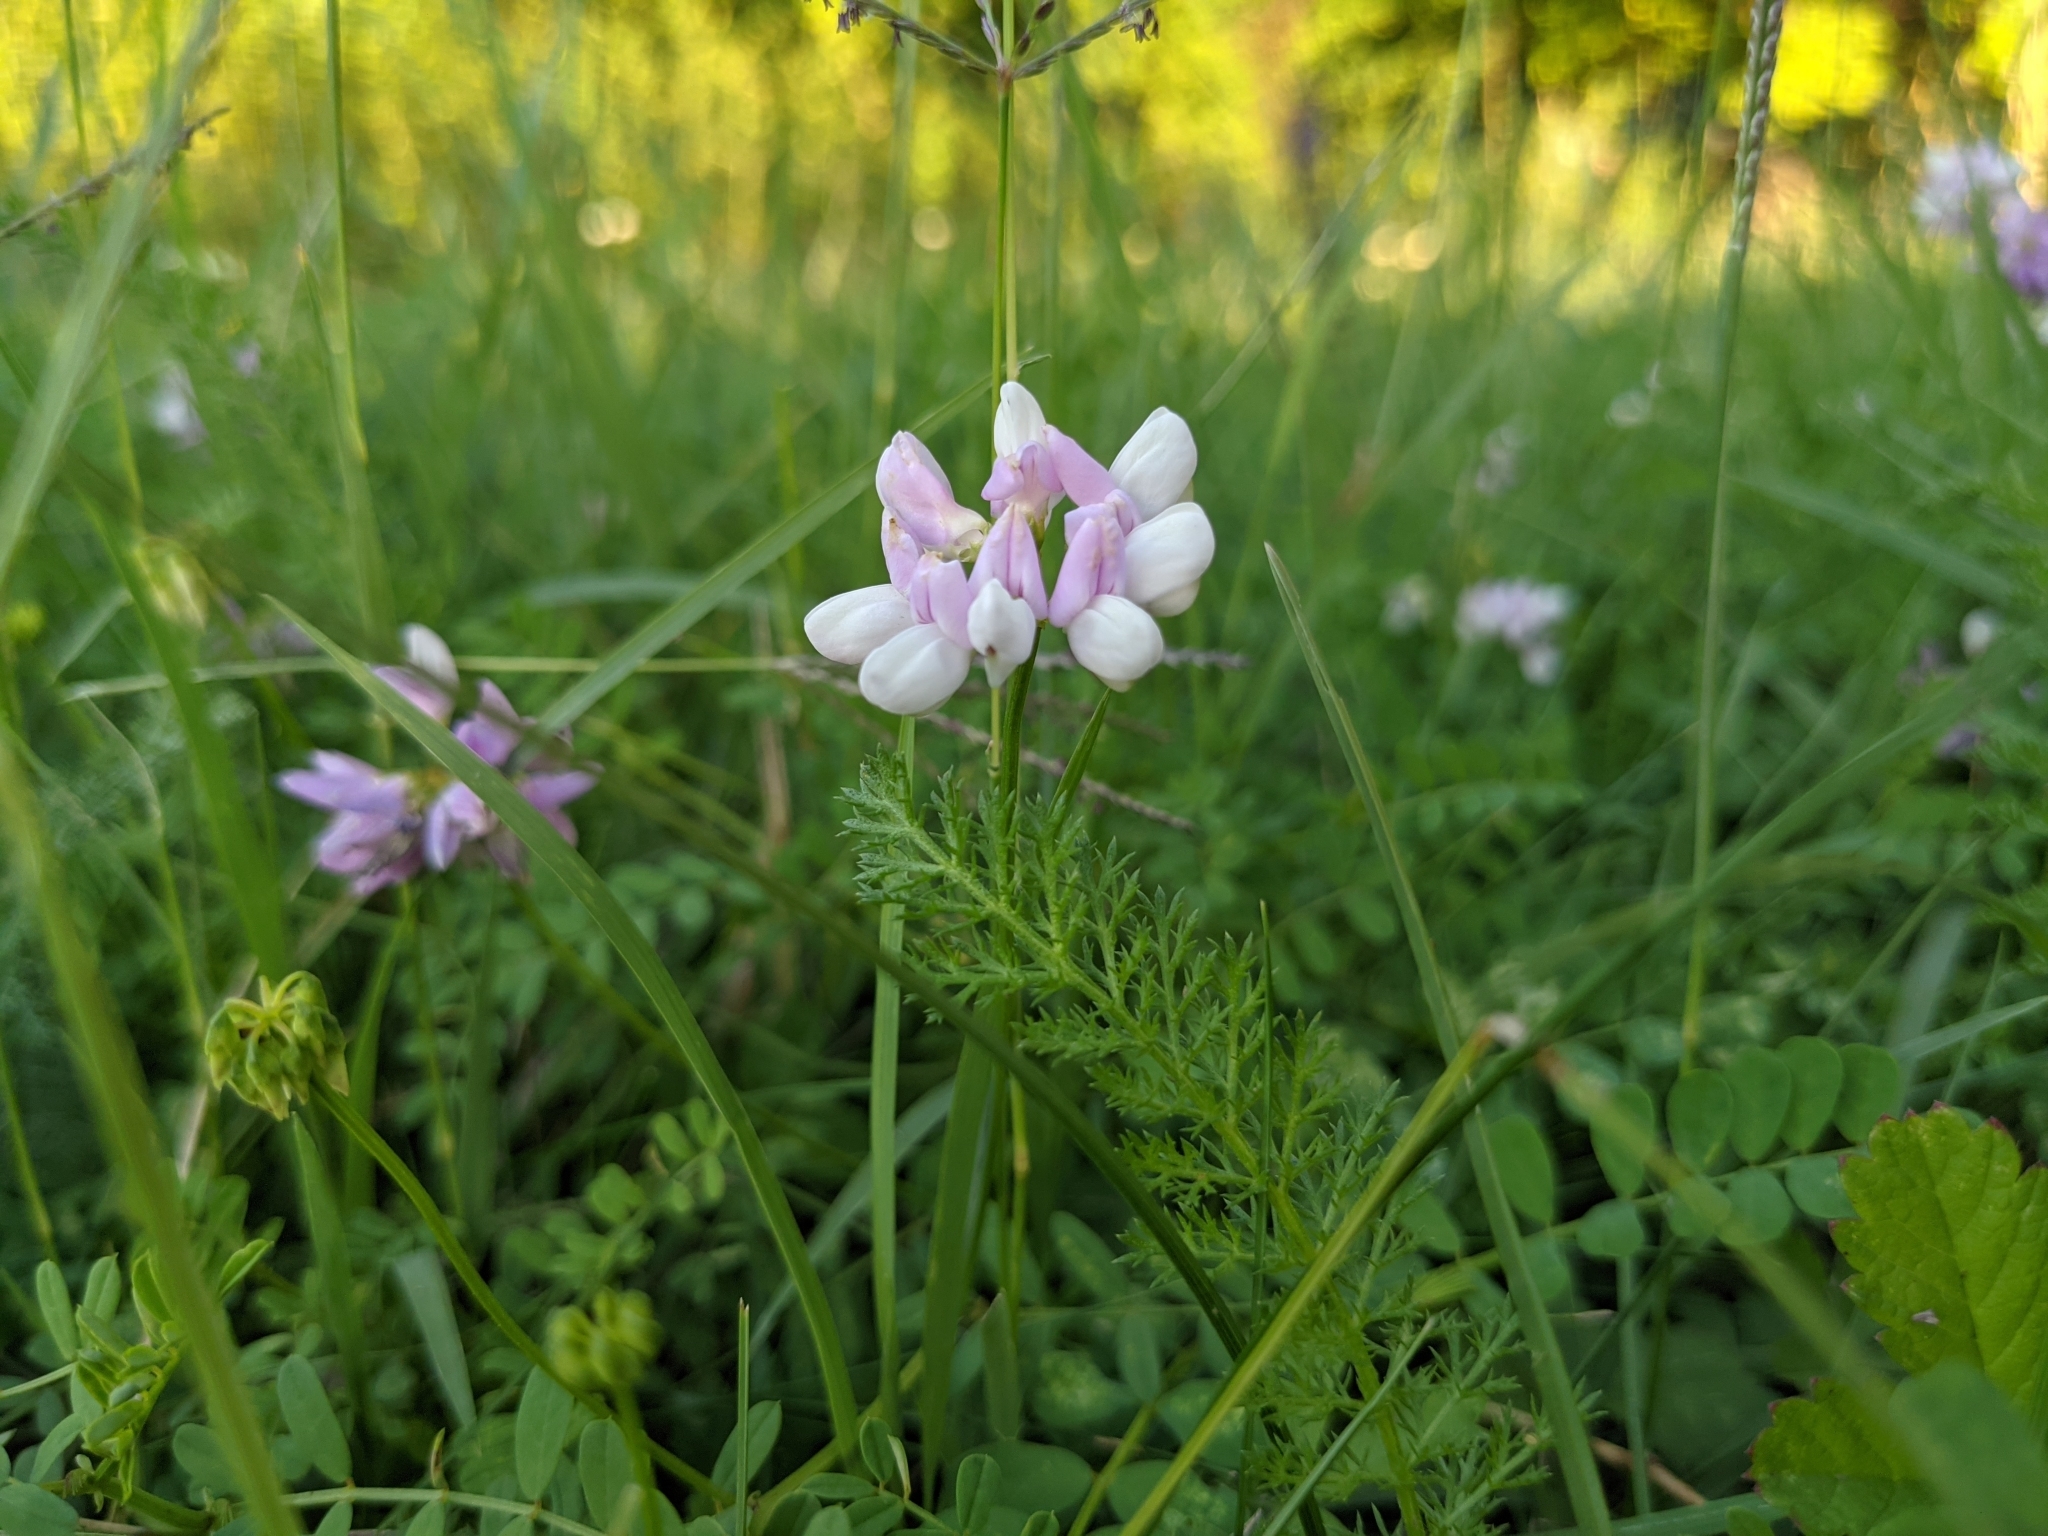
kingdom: Plantae
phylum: Tracheophyta
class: Magnoliopsida
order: Fabales
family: Fabaceae
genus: Coronilla
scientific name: Coronilla varia
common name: Crownvetch
